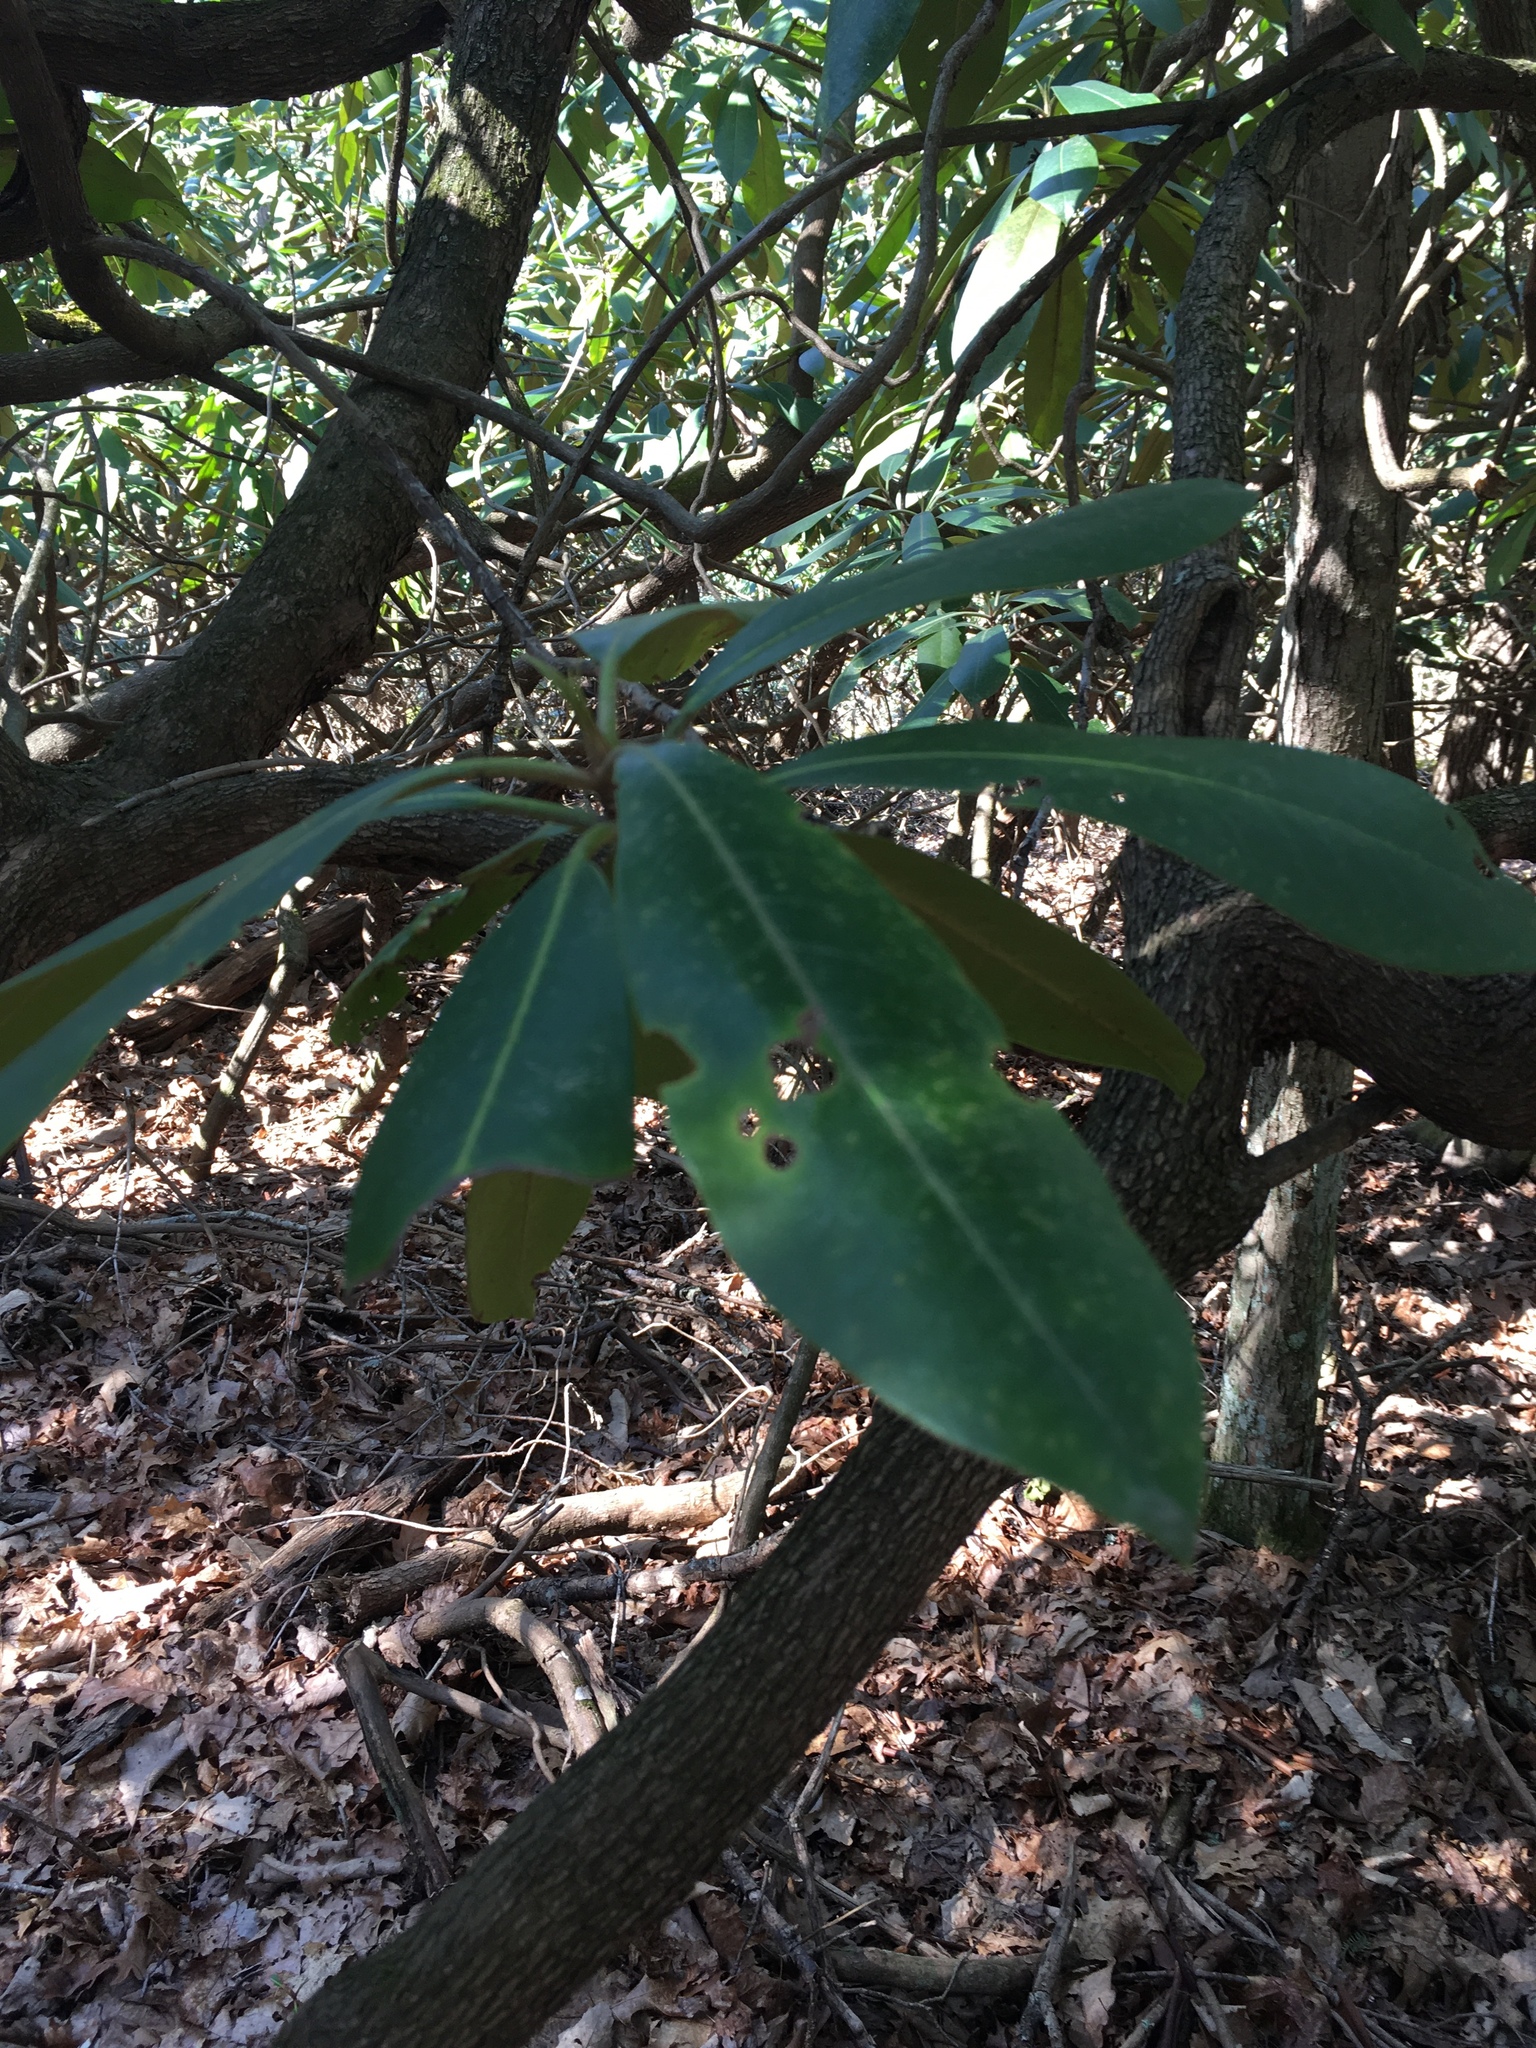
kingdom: Plantae
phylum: Tracheophyta
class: Magnoliopsida
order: Ericales
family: Ericaceae
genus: Rhododendron
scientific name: Rhododendron maximum
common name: Great rhododendron
